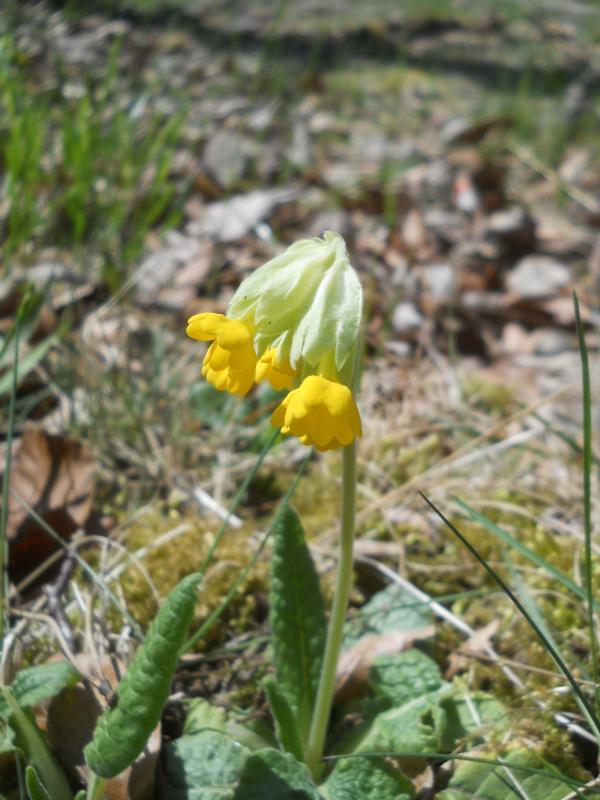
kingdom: Plantae
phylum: Tracheophyta
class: Magnoliopsida
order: Ericales
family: Primulaceae
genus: Primula
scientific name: Primula veris
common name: Cowslip
